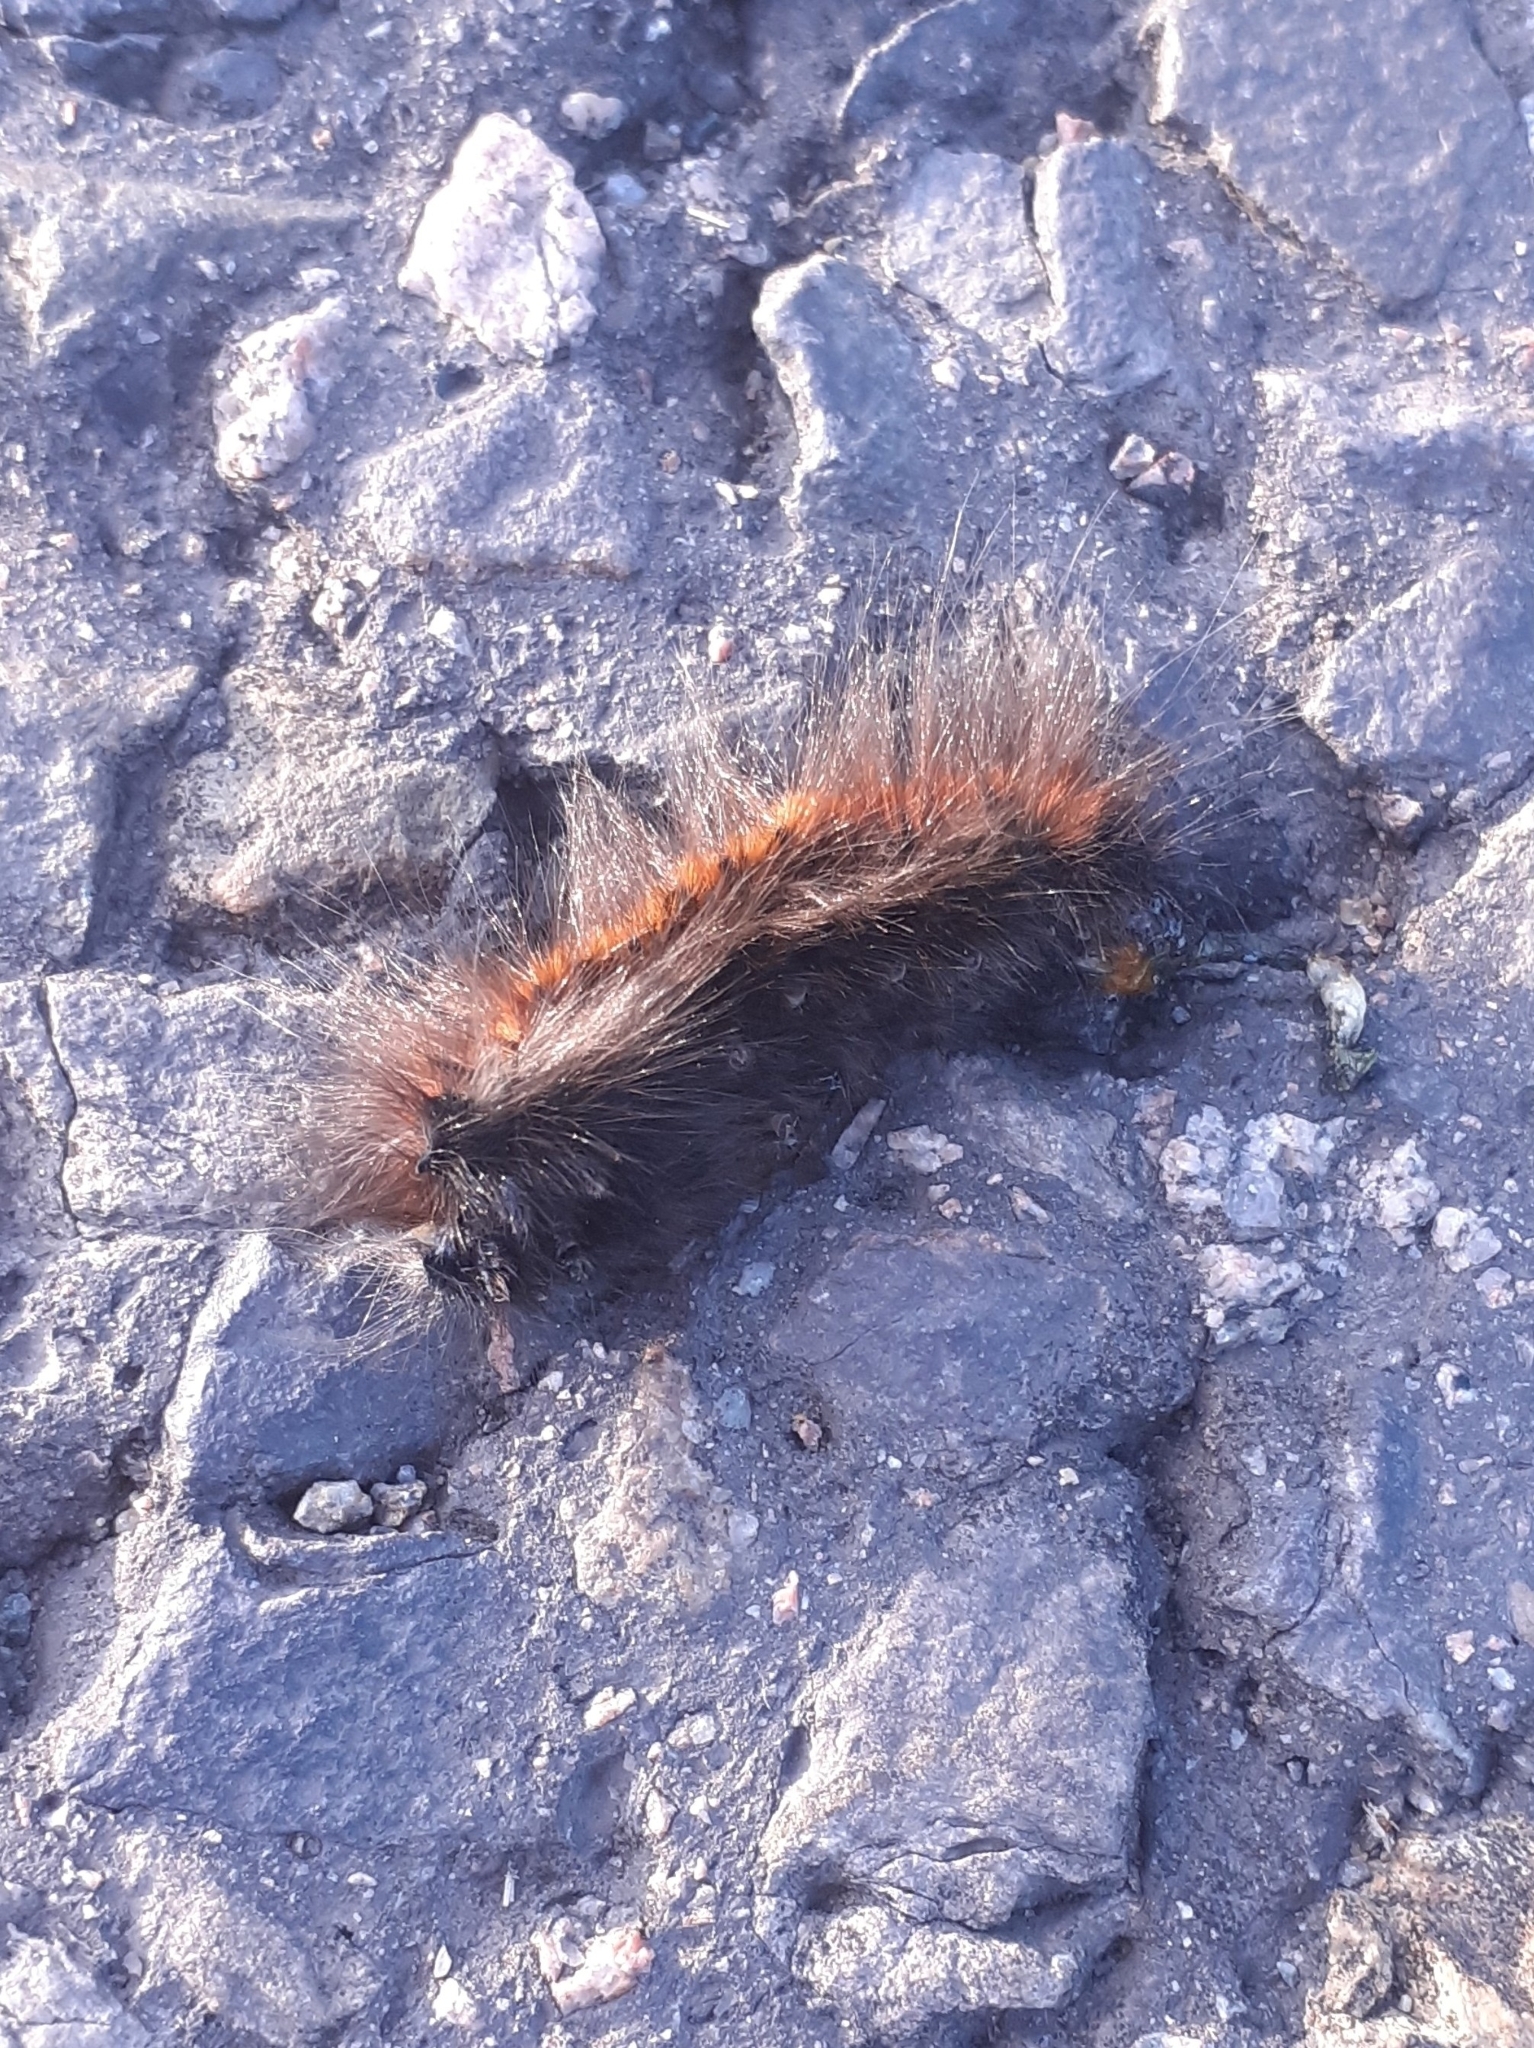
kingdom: Animalia
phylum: Arthropoda
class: Insecta
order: Lepidoptera
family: Lasiocampidae
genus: Macrothylacia
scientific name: Macrothylacia rubi
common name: Fox moth
